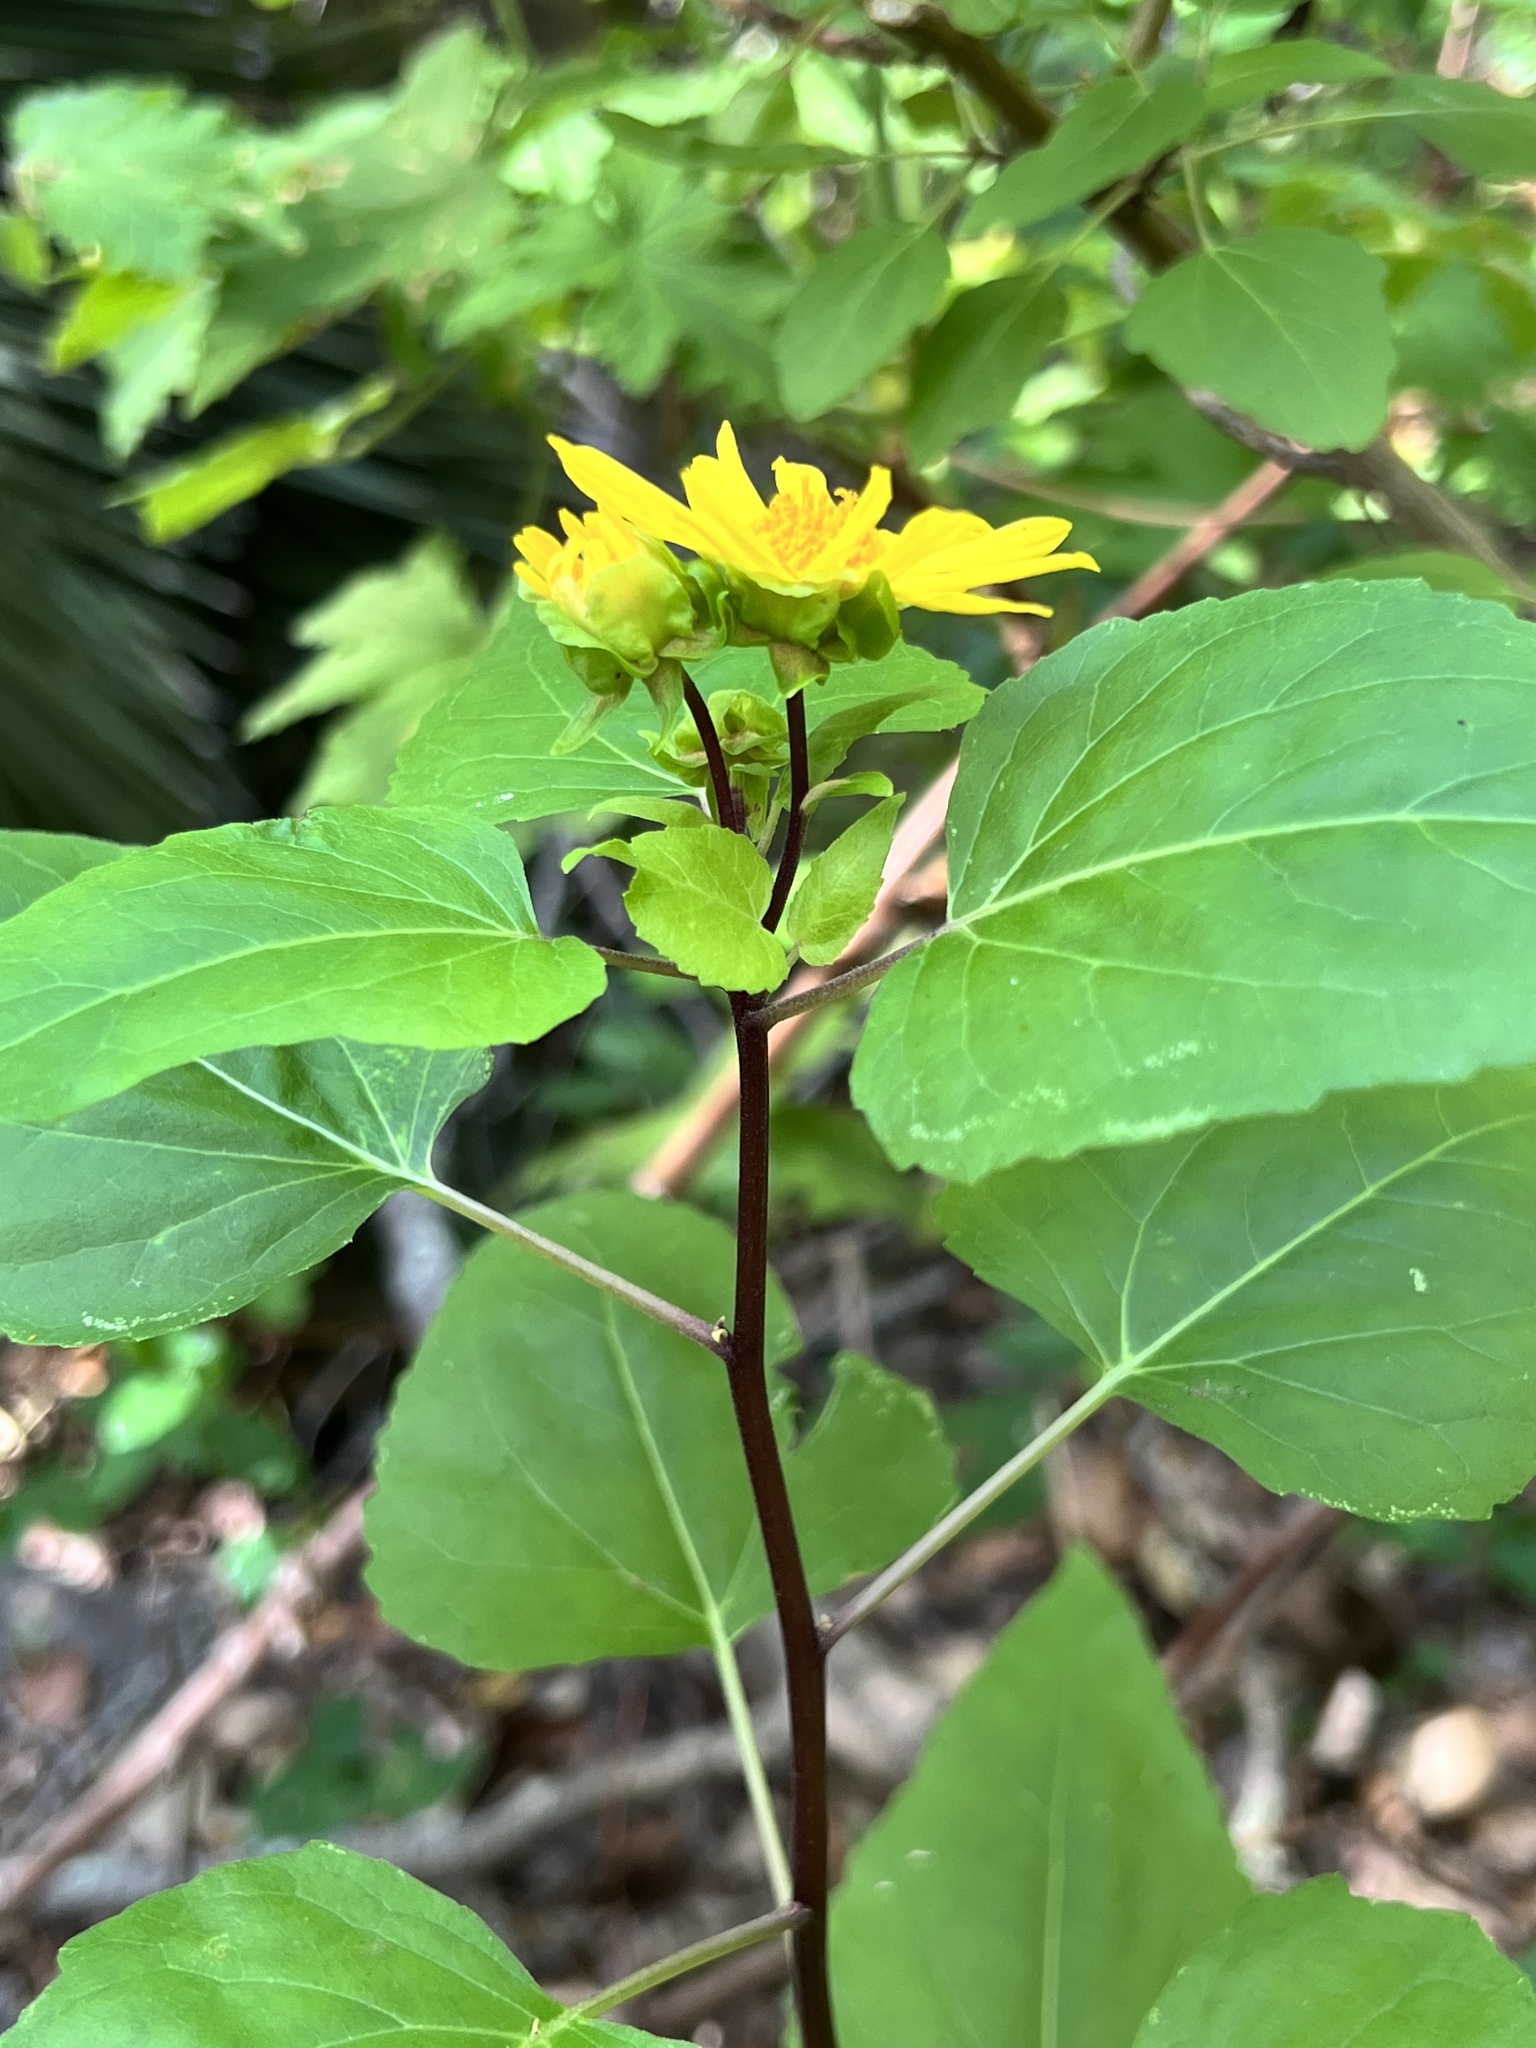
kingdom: Plantae
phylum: Tracheophyta
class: Magnoliopsida
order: Asterales
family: Asteraceae
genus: Venegasia
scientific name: Venegasia carpesioides
